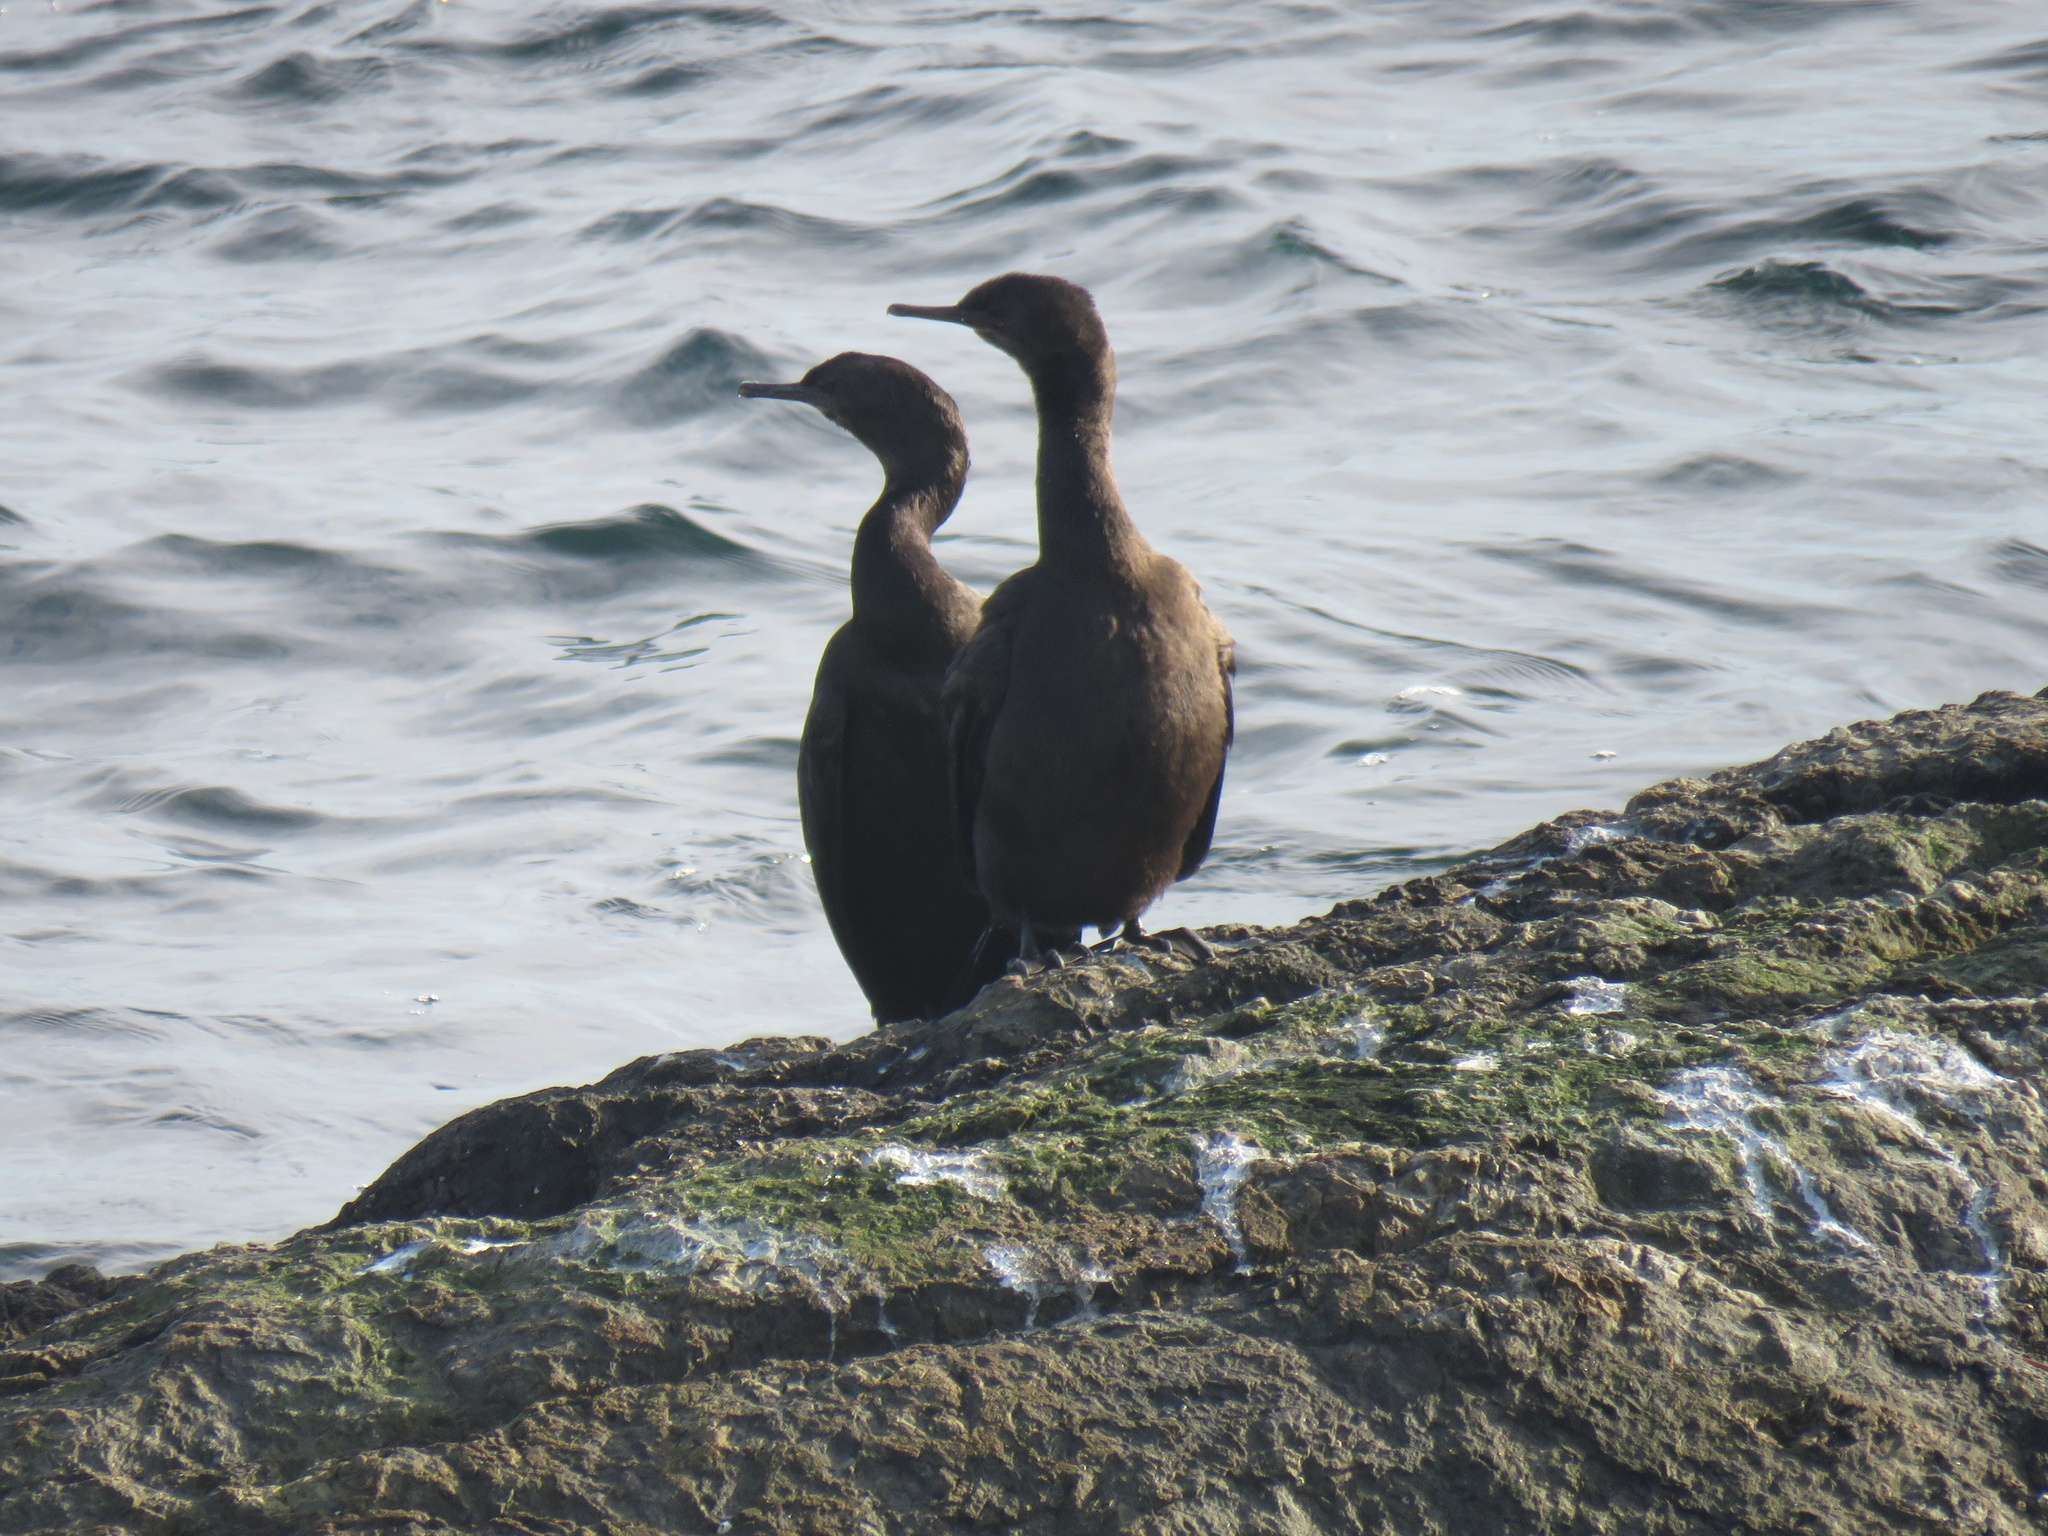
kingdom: Animalia
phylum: Chordata
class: Aves
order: Suliformes
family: Phalacrocoracidae
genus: Phalacrocorax
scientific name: Phalacrocorax pelagicus
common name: Pelagic cormorant
